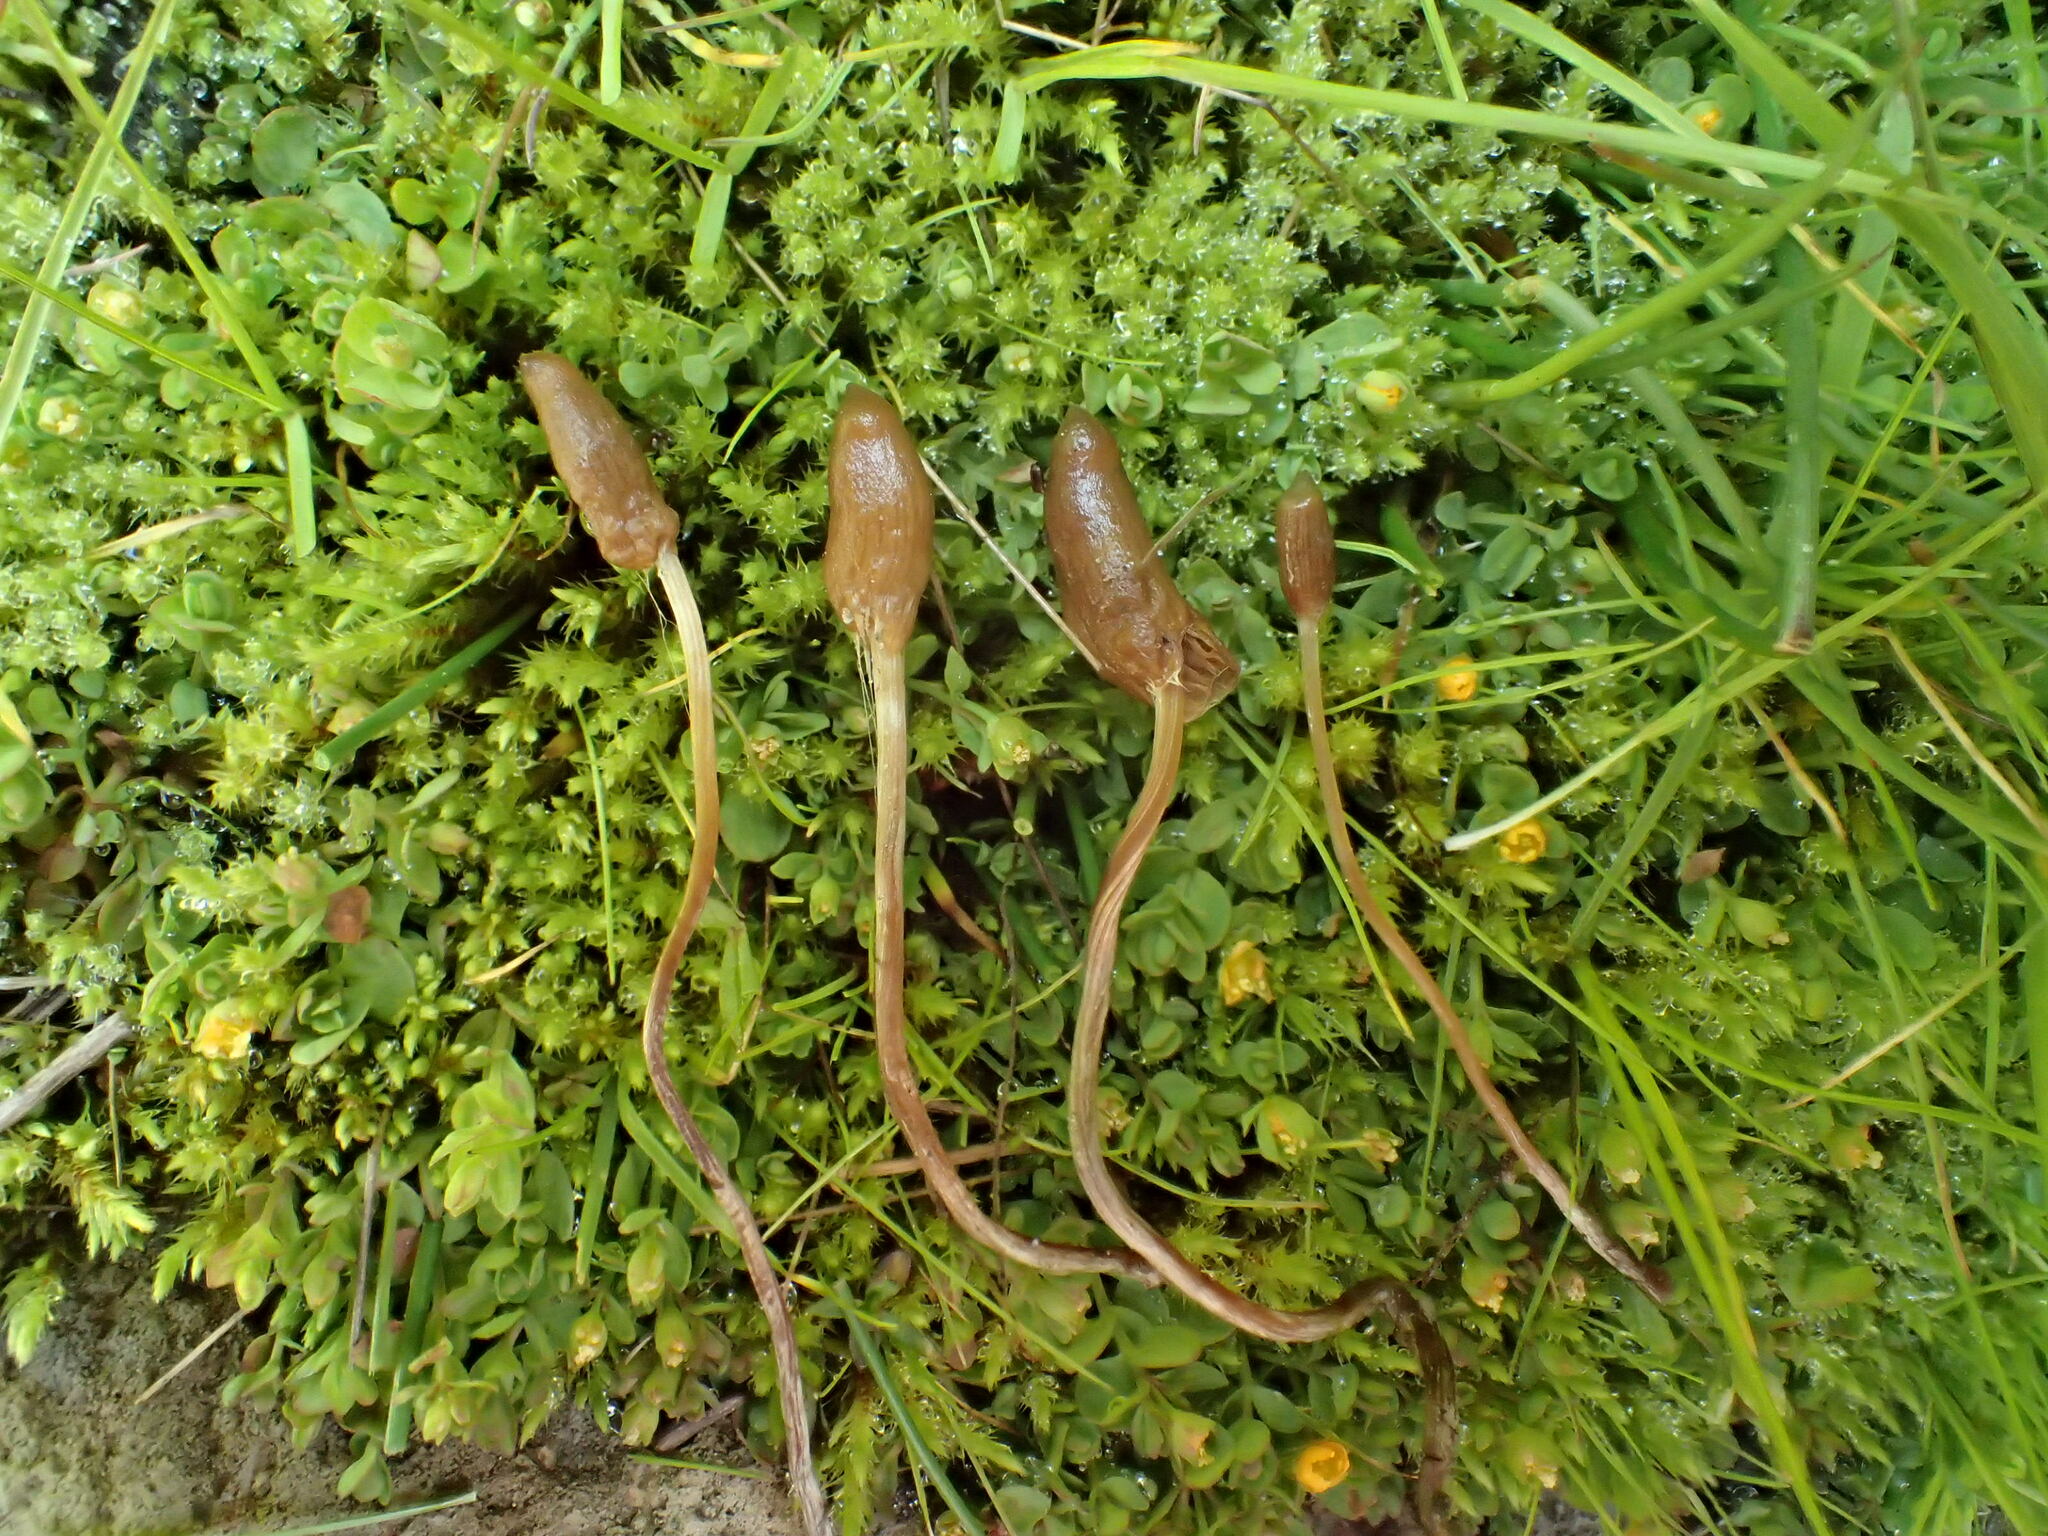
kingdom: Fungi
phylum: Basidiomycota
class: Agaricomycetes
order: Agaricales
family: Bolbitiaceae
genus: Galeropsis
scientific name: Galeropsis polytrichoides
